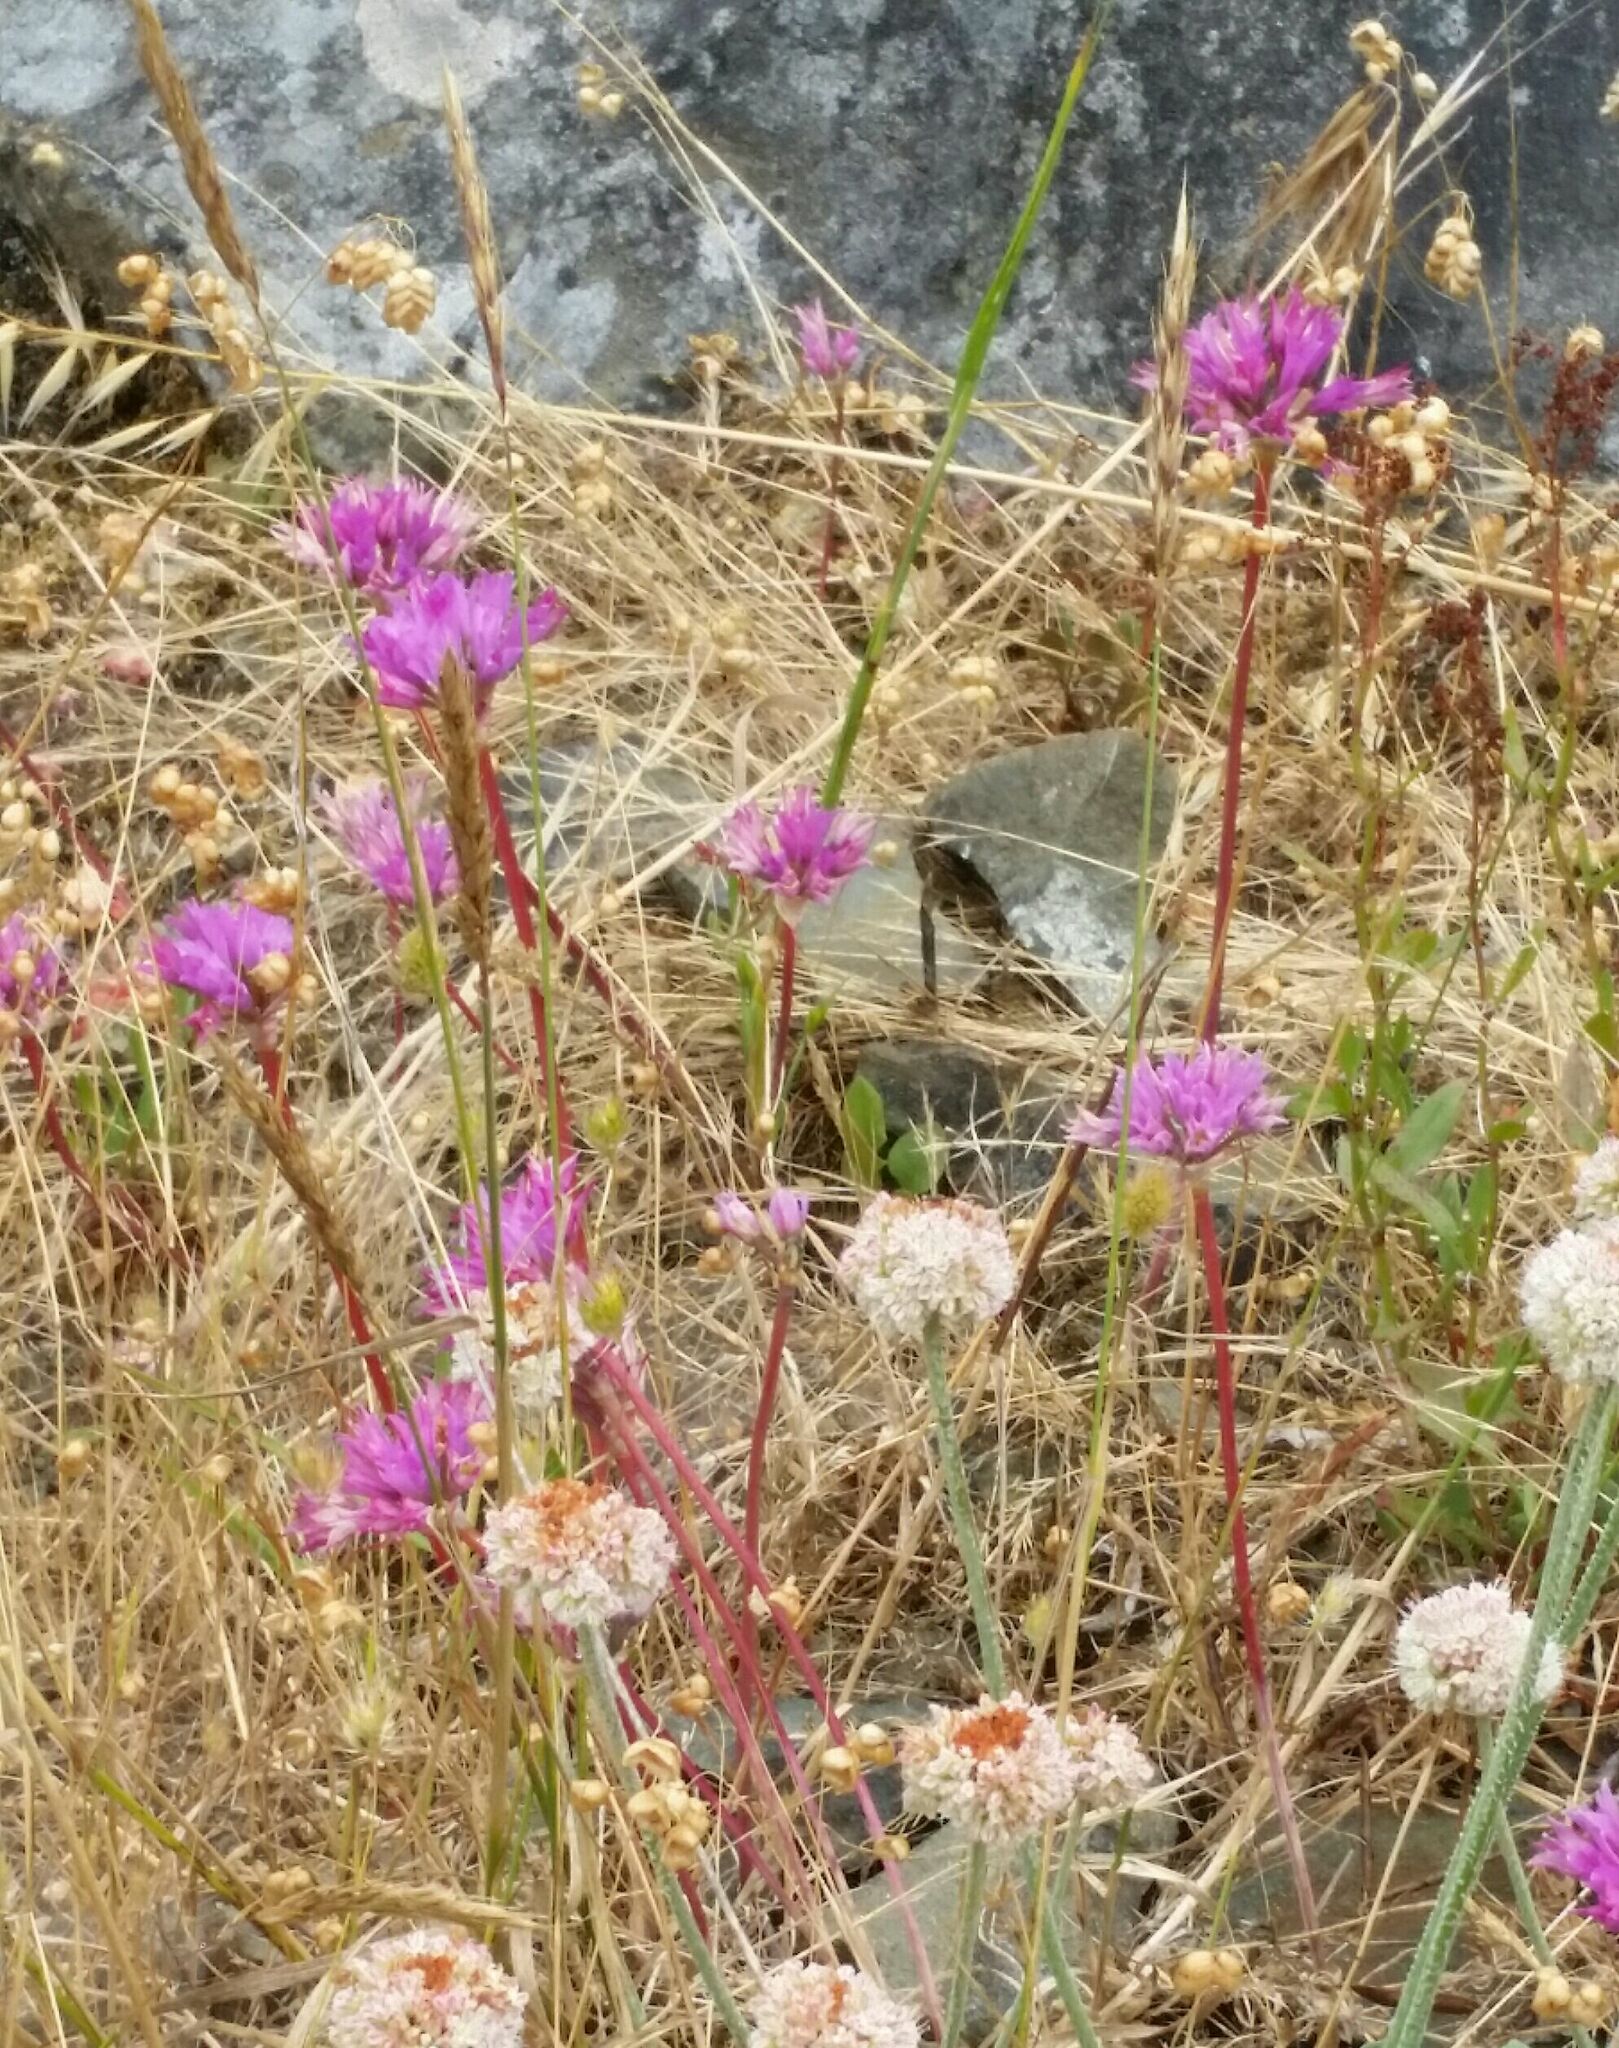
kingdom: Plantae
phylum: Tracheophyta
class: Liliopsida
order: Asparagales
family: Amaryllidaceae
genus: Allium
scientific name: Allium dichlamydeum
